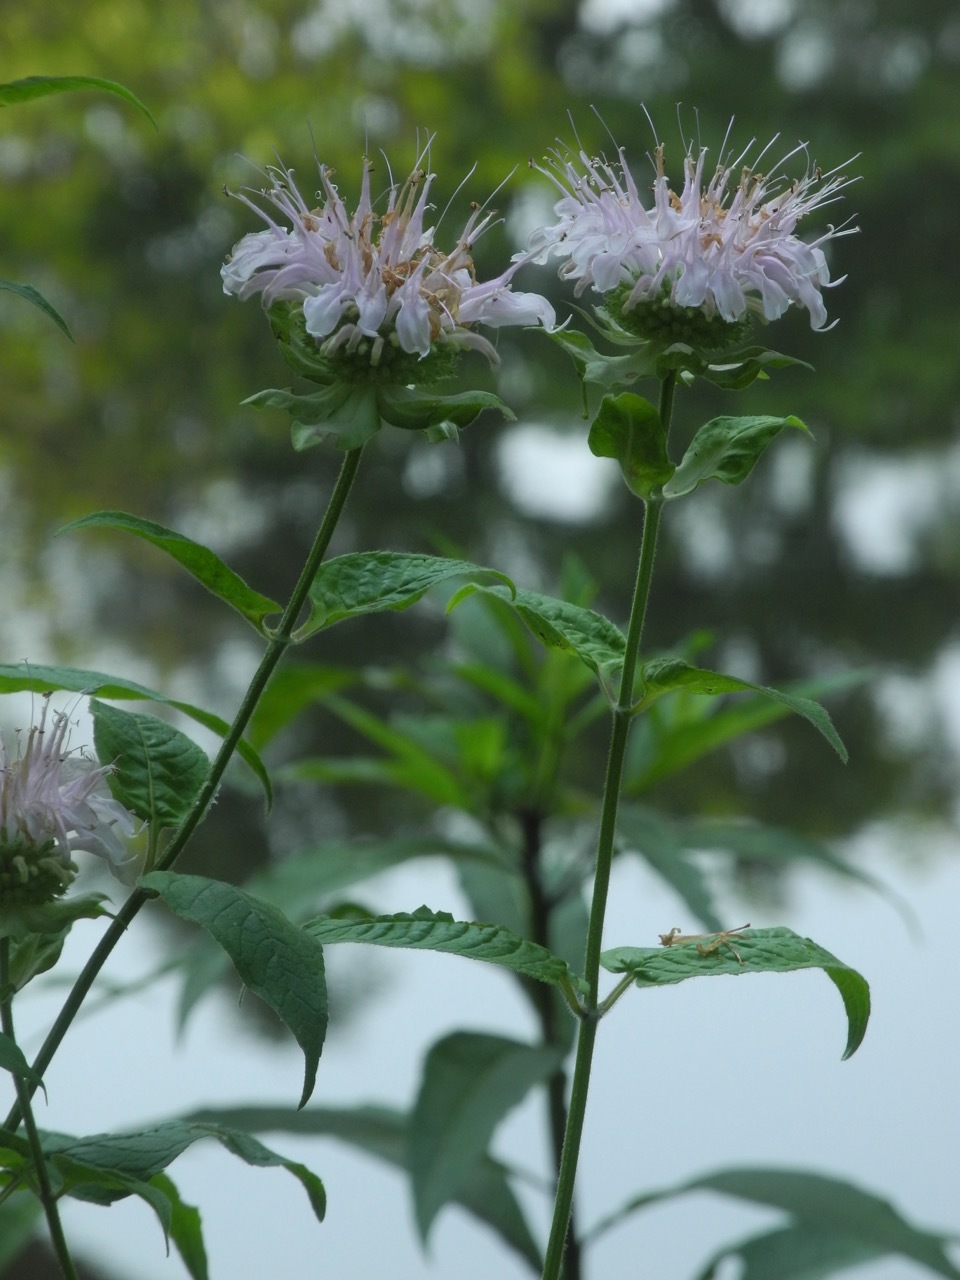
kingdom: Plantae
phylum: Tracheophyta
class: Magnoliopsida
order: Lamiales
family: Lamiaceae
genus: Monarda
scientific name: Monarda clinopodia
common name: Basil beebalm
